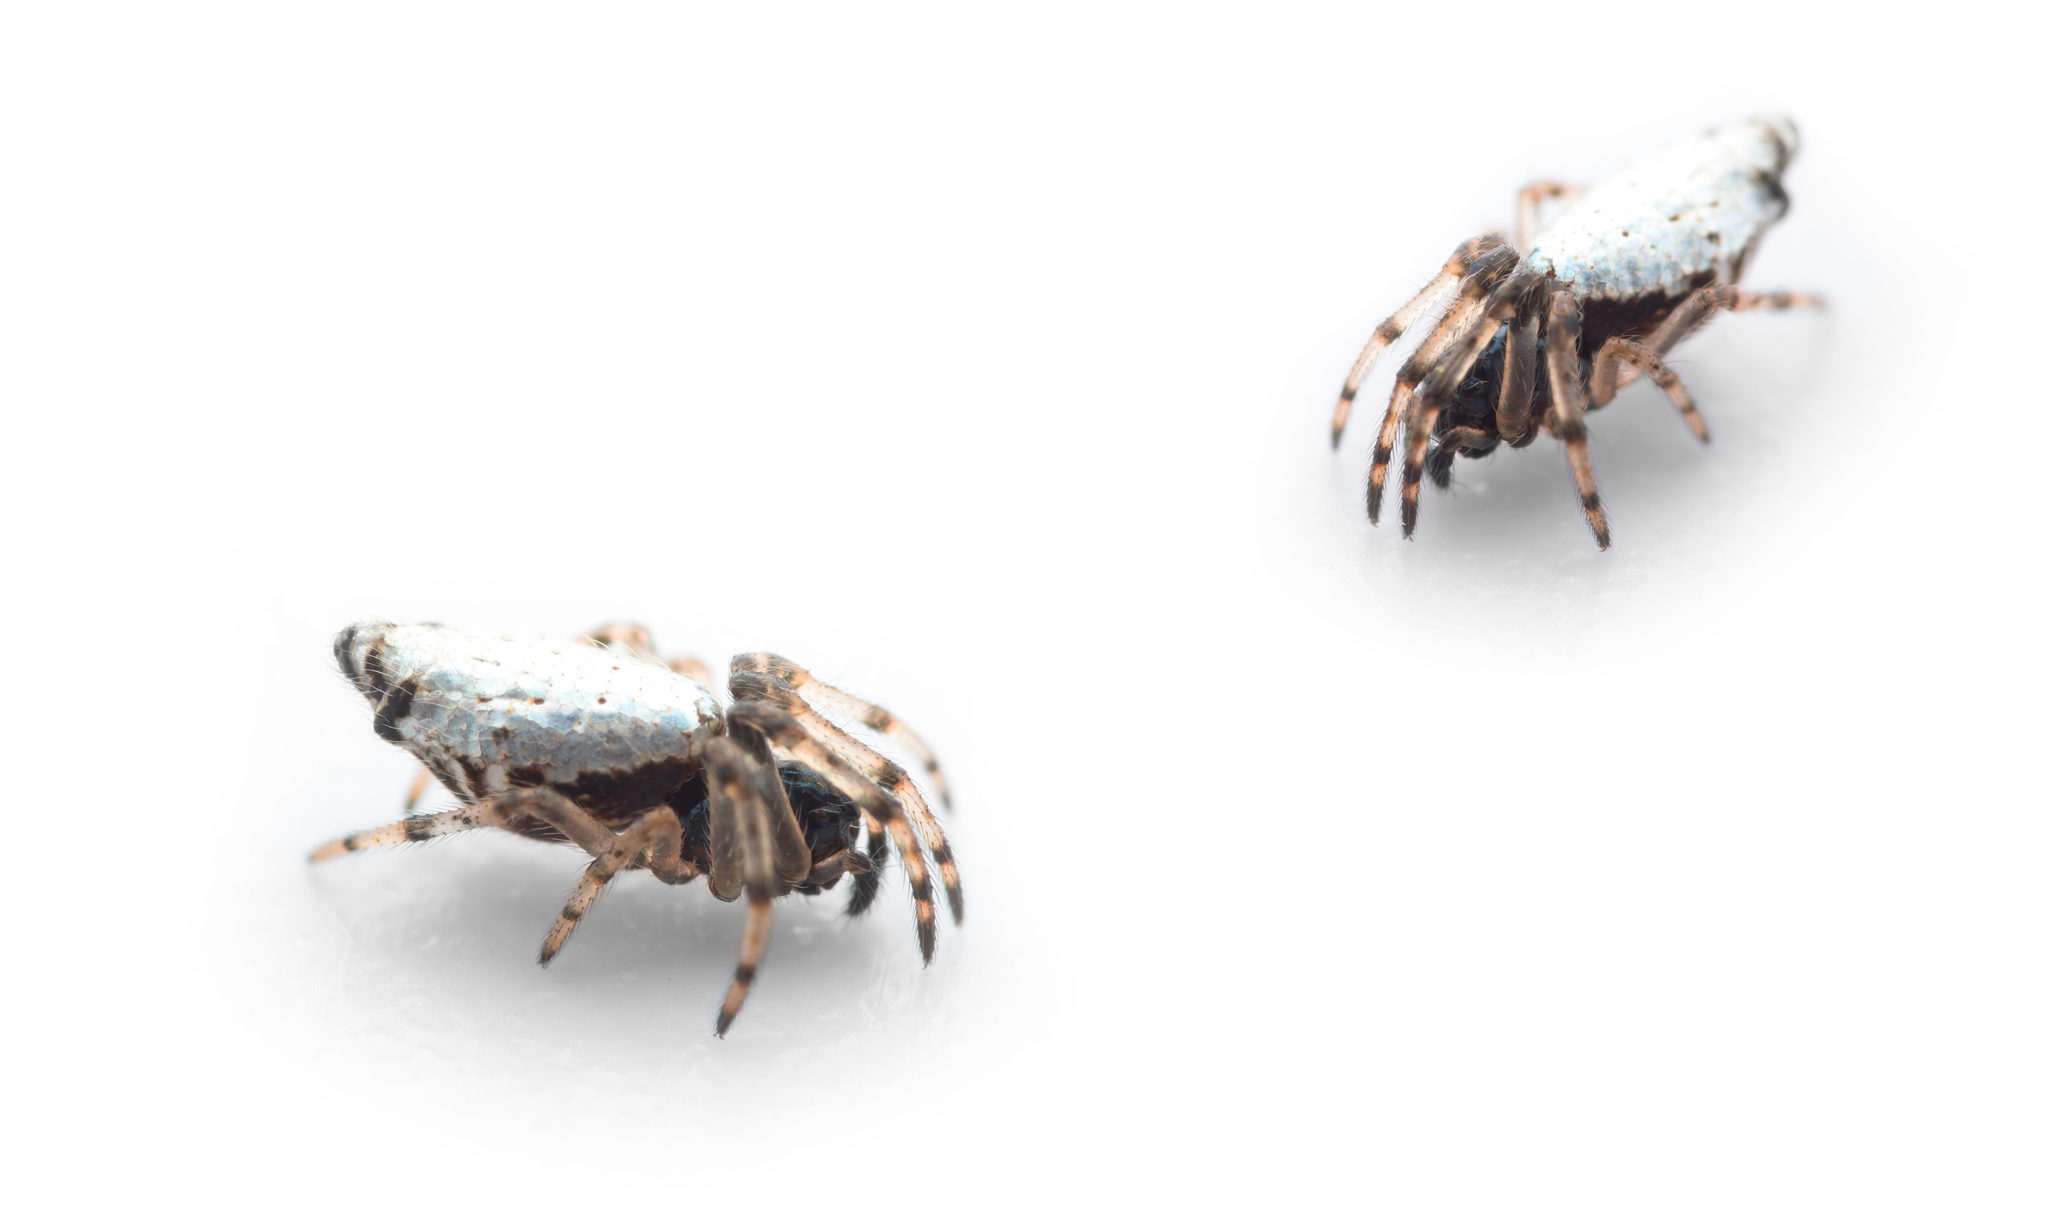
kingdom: Animalia
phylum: Arthropoda
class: Arachnida
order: Araneae
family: Araneidae
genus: Cyclosa
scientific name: Cyclosa insulana
